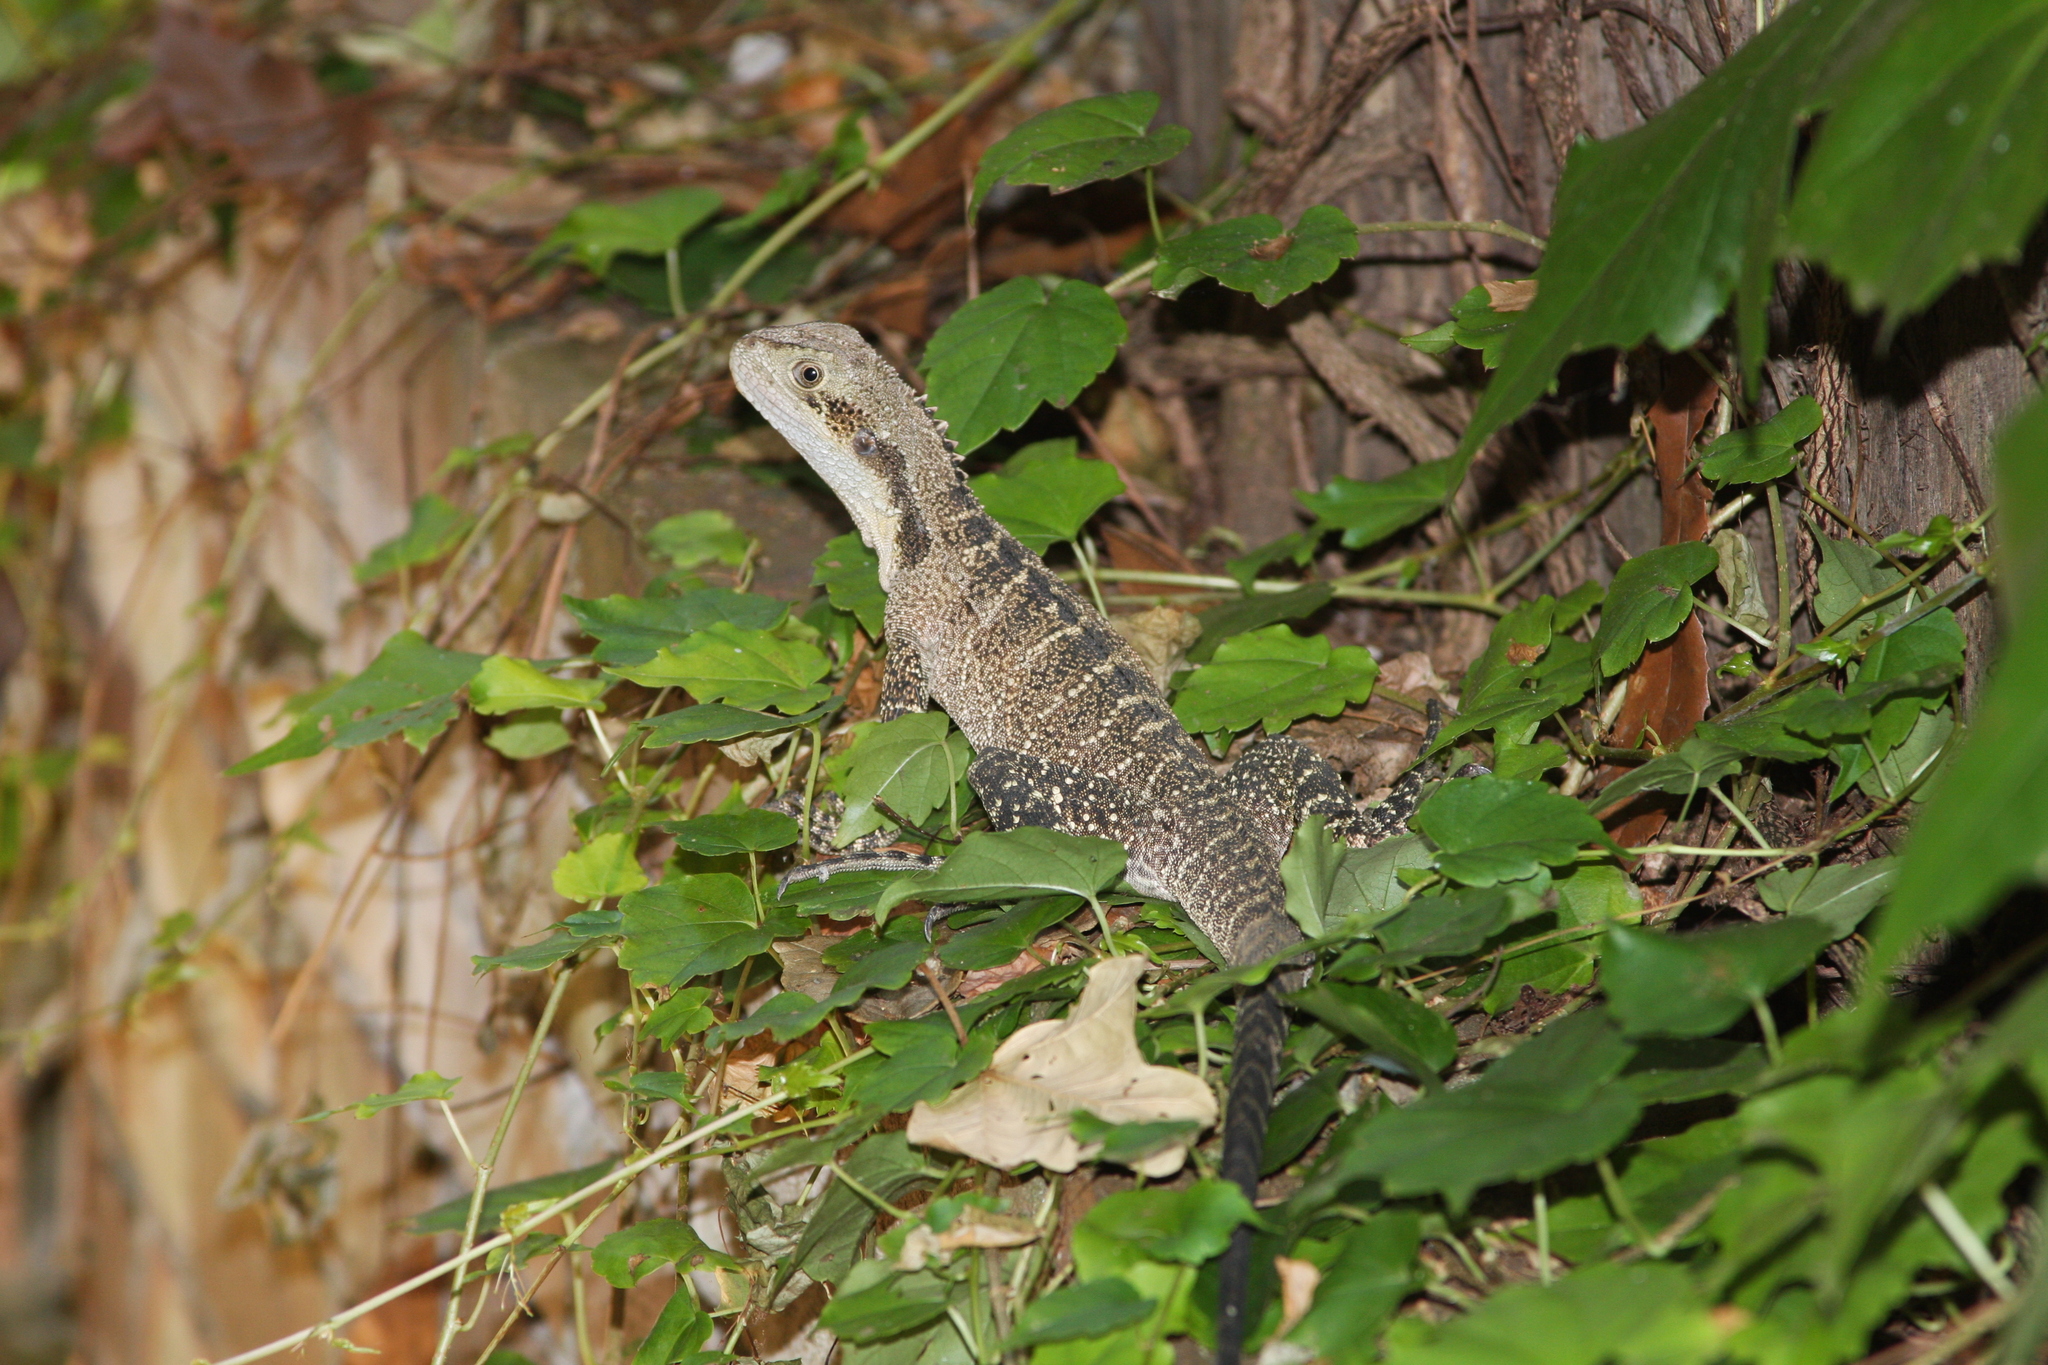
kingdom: Animalia
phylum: Chordata
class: Squamata
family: Agamidae
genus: Intellagama
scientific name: Intellagama lesueurii
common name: Eastern water dragon
